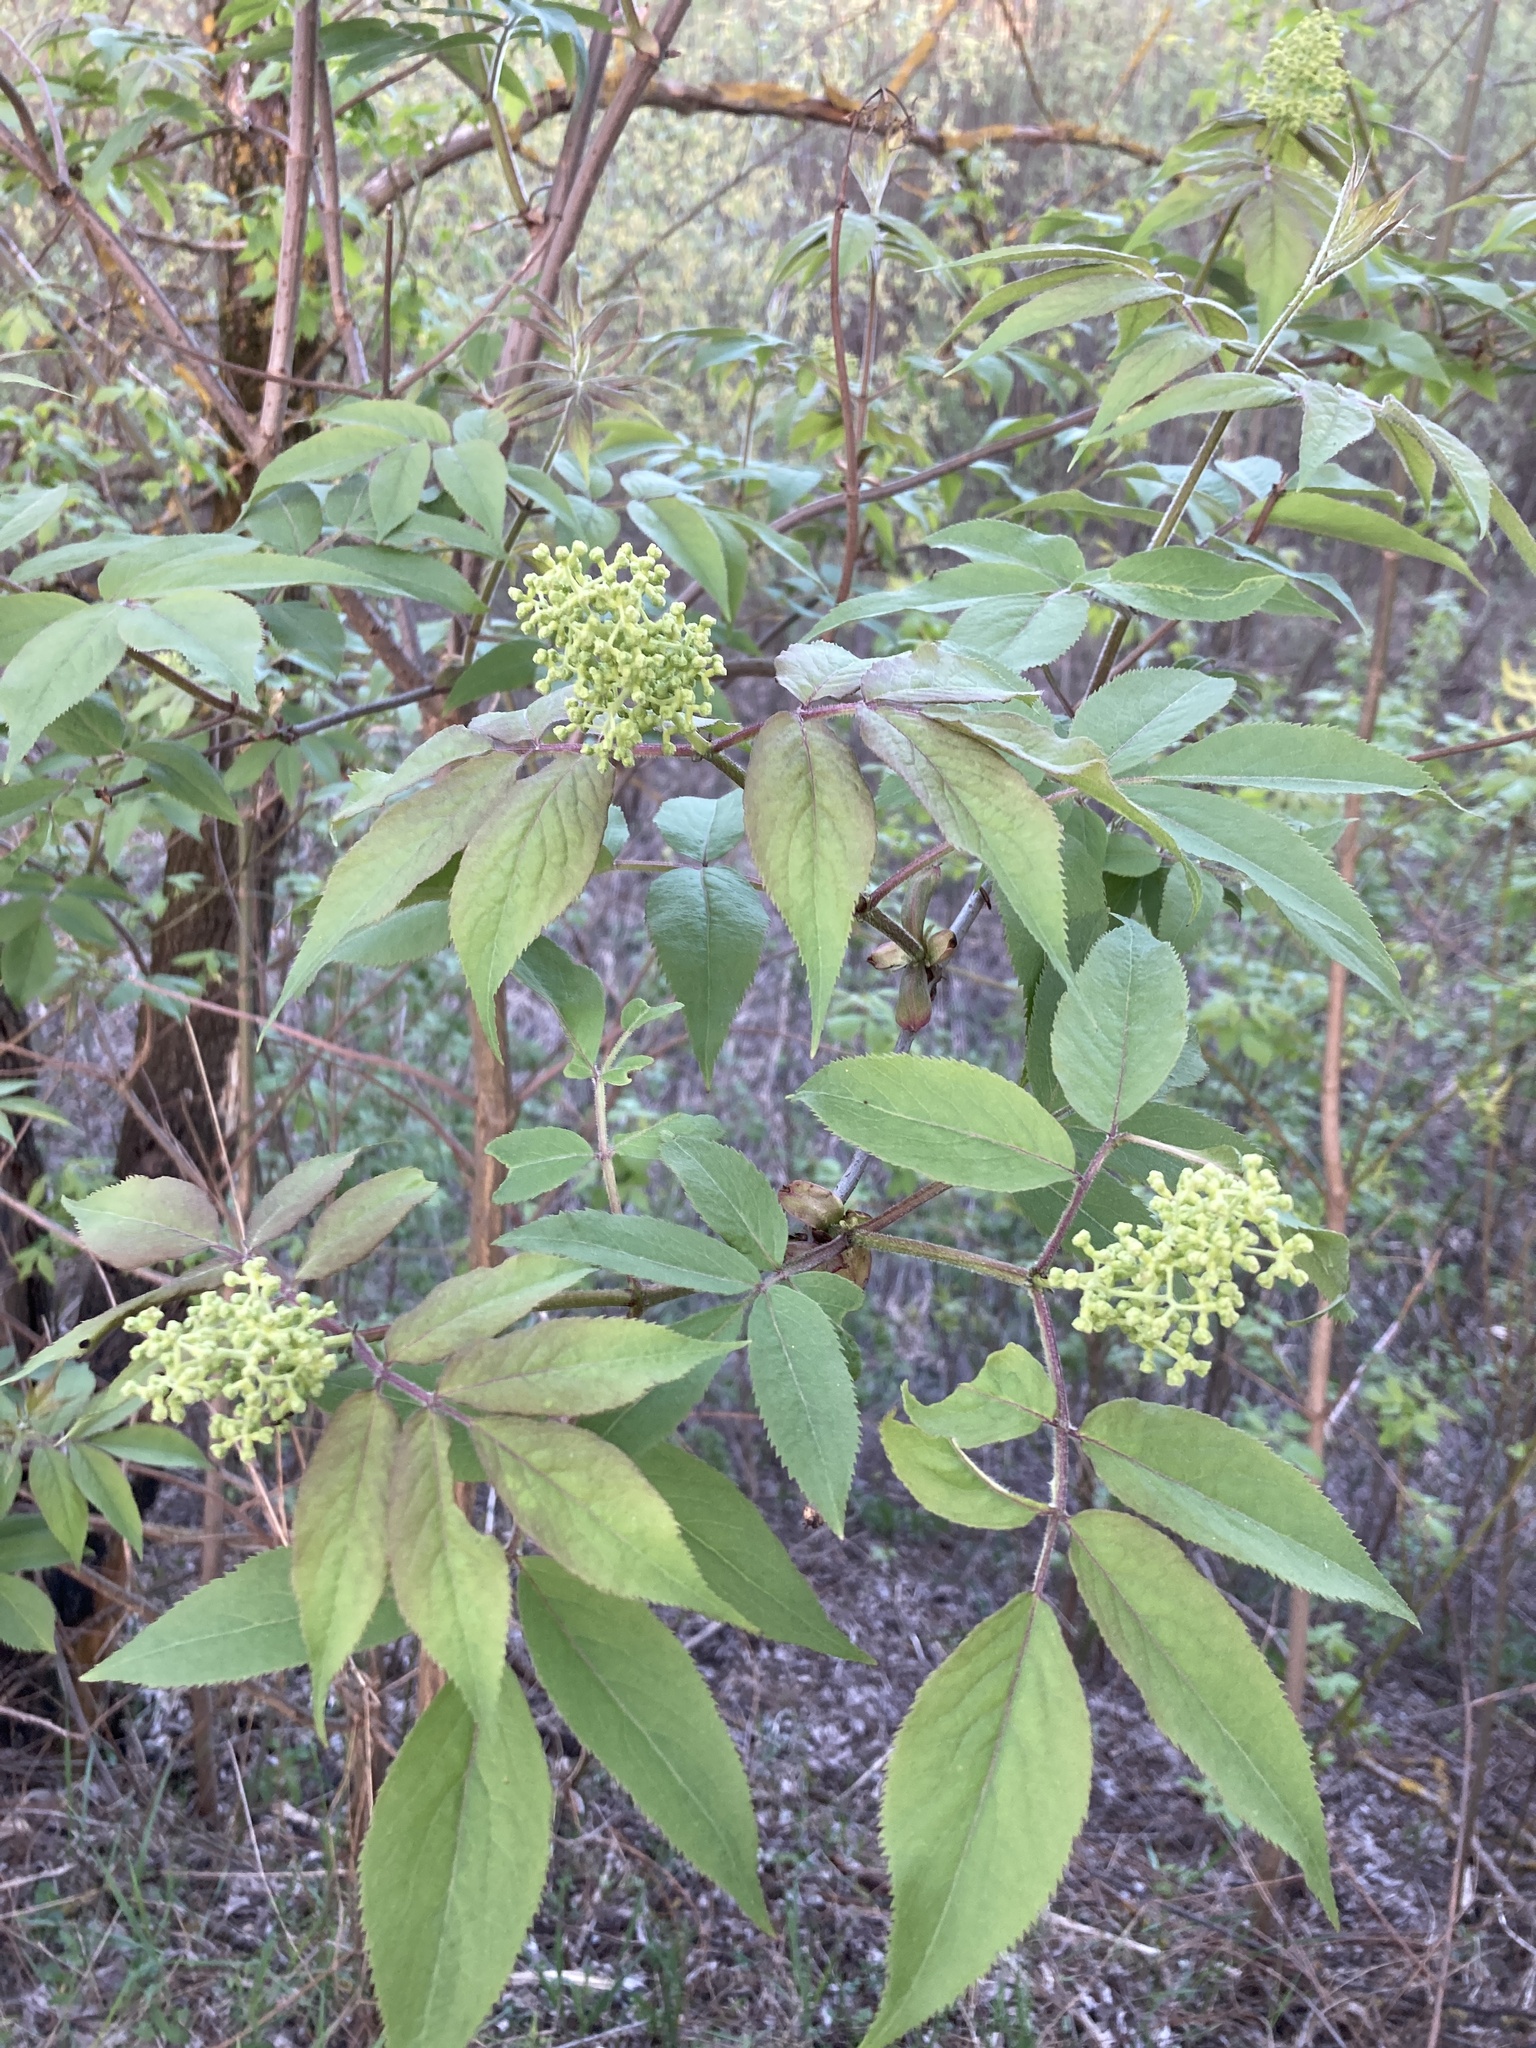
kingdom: Plantae
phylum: Tracheophyta
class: Magnoliopsida
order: Dipsacales
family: Viburnaceae
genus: Sambucus
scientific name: Sambucus racemosa
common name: Red-berried elder
